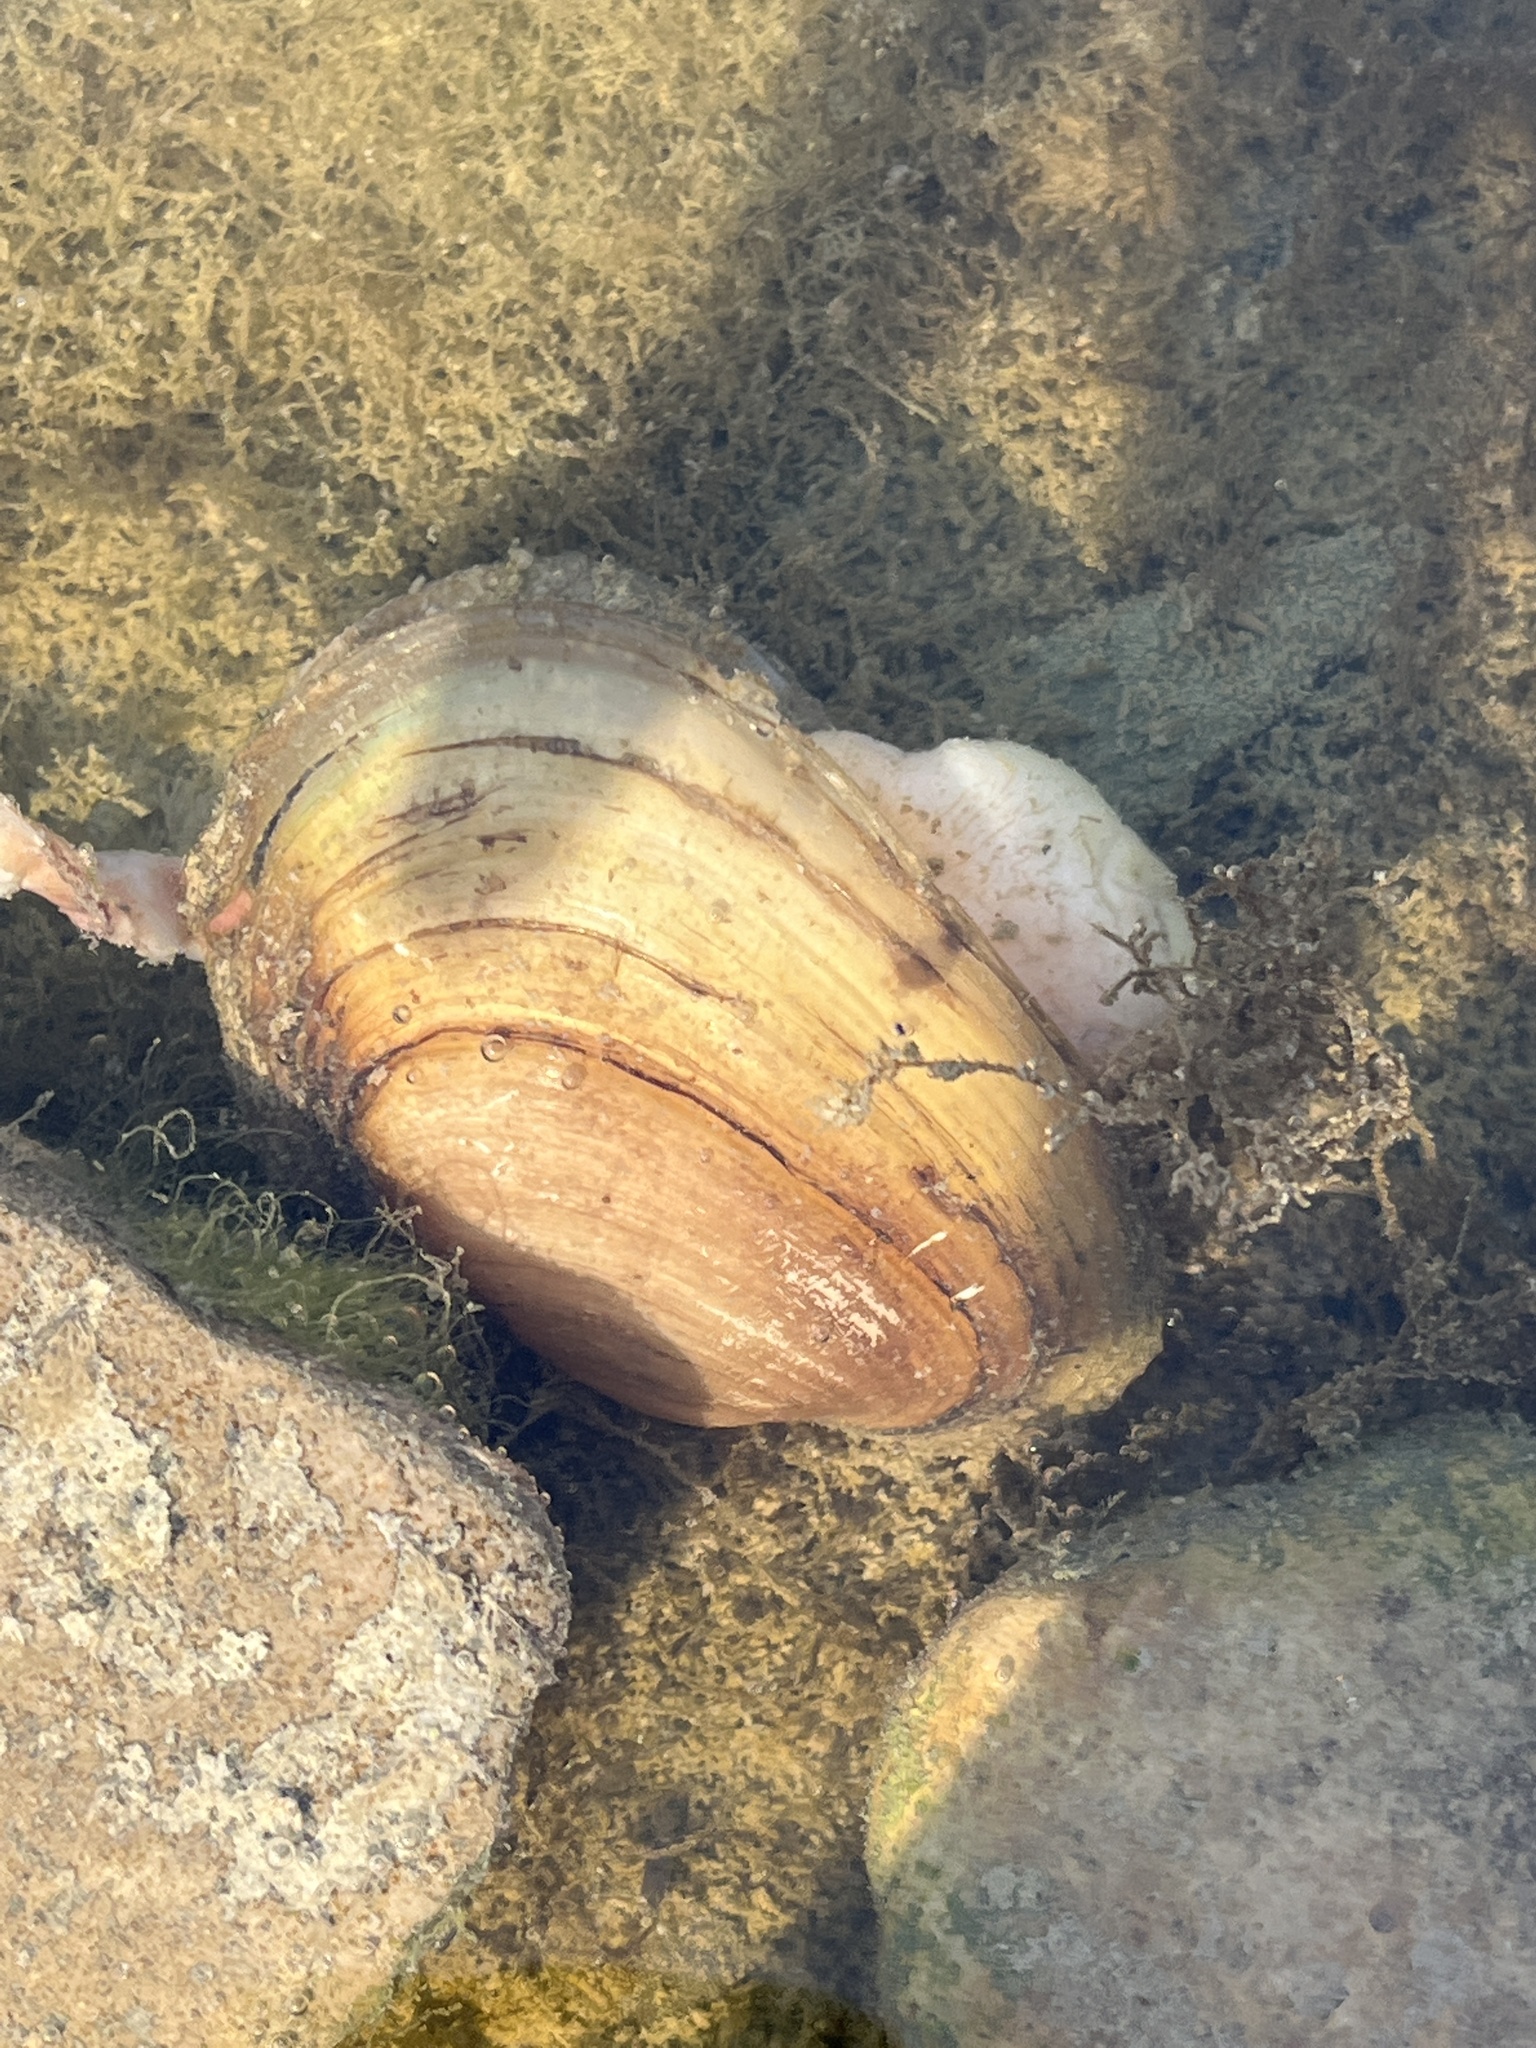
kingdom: Animalia
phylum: Mollusca
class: Bivalvia
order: Unionida
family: Unionidae
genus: Potamilus
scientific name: Potamilus fragilis
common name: Fragile papershell
